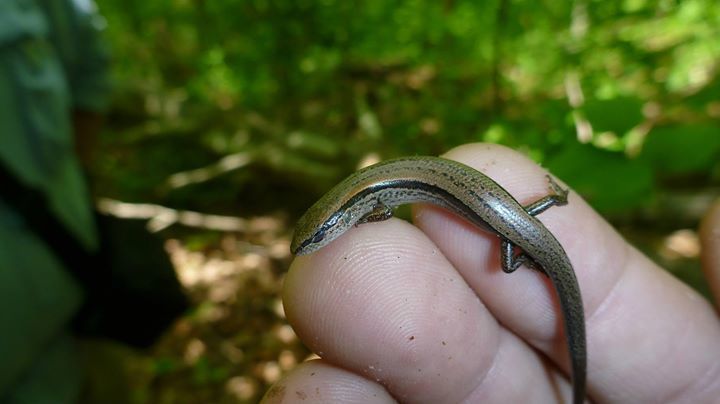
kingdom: Animalia
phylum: Chordata
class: Squamata
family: Scincidae
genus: Scincella
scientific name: Scincella lateralis
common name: Ground skink
